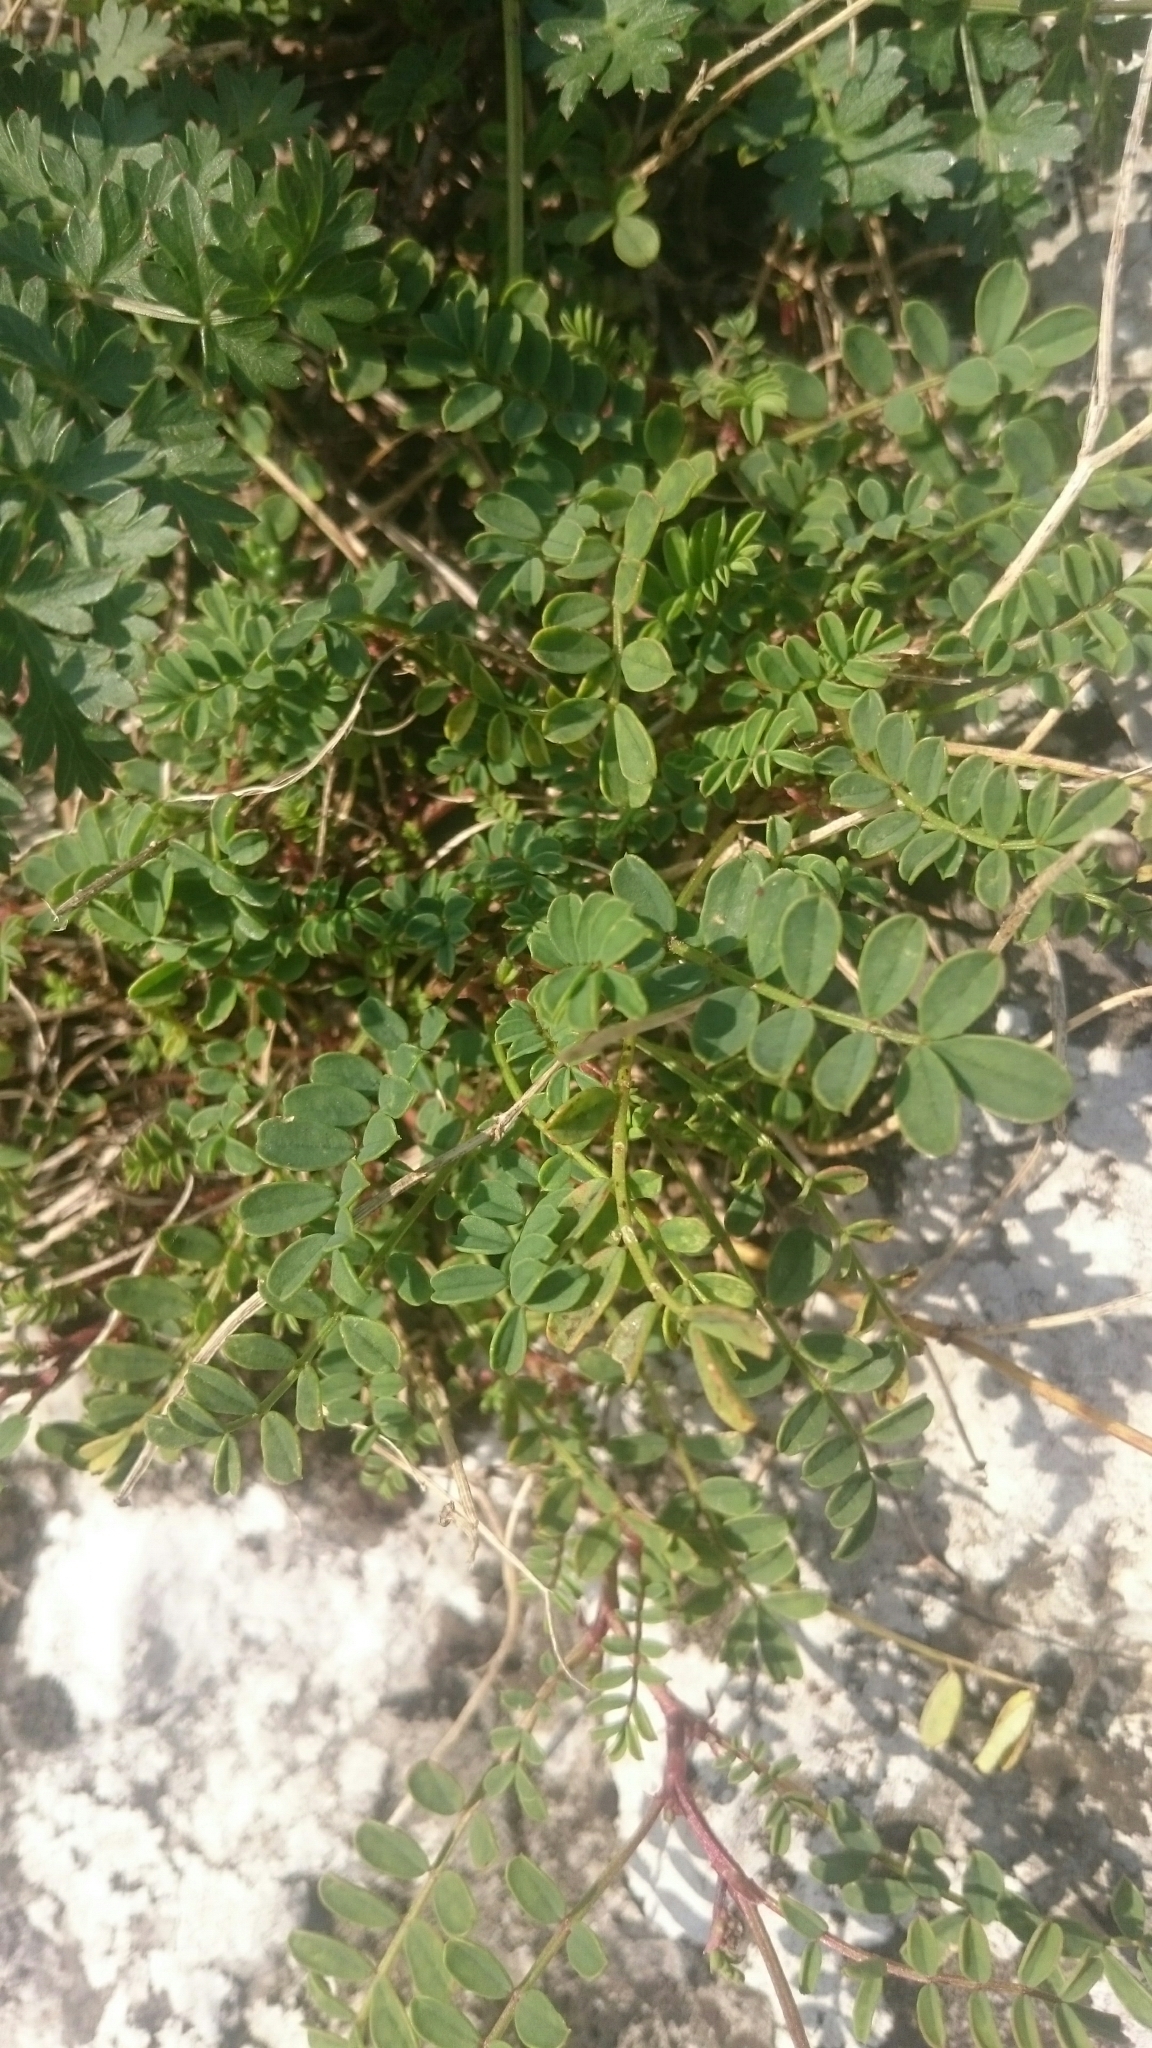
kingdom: Plantae
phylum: Tracheophyta
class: Magnoliopsida
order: Fabales
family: Fabaceae
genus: Hippocrepis
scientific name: Hippocrepis comosa
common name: Horseshoe vetch
